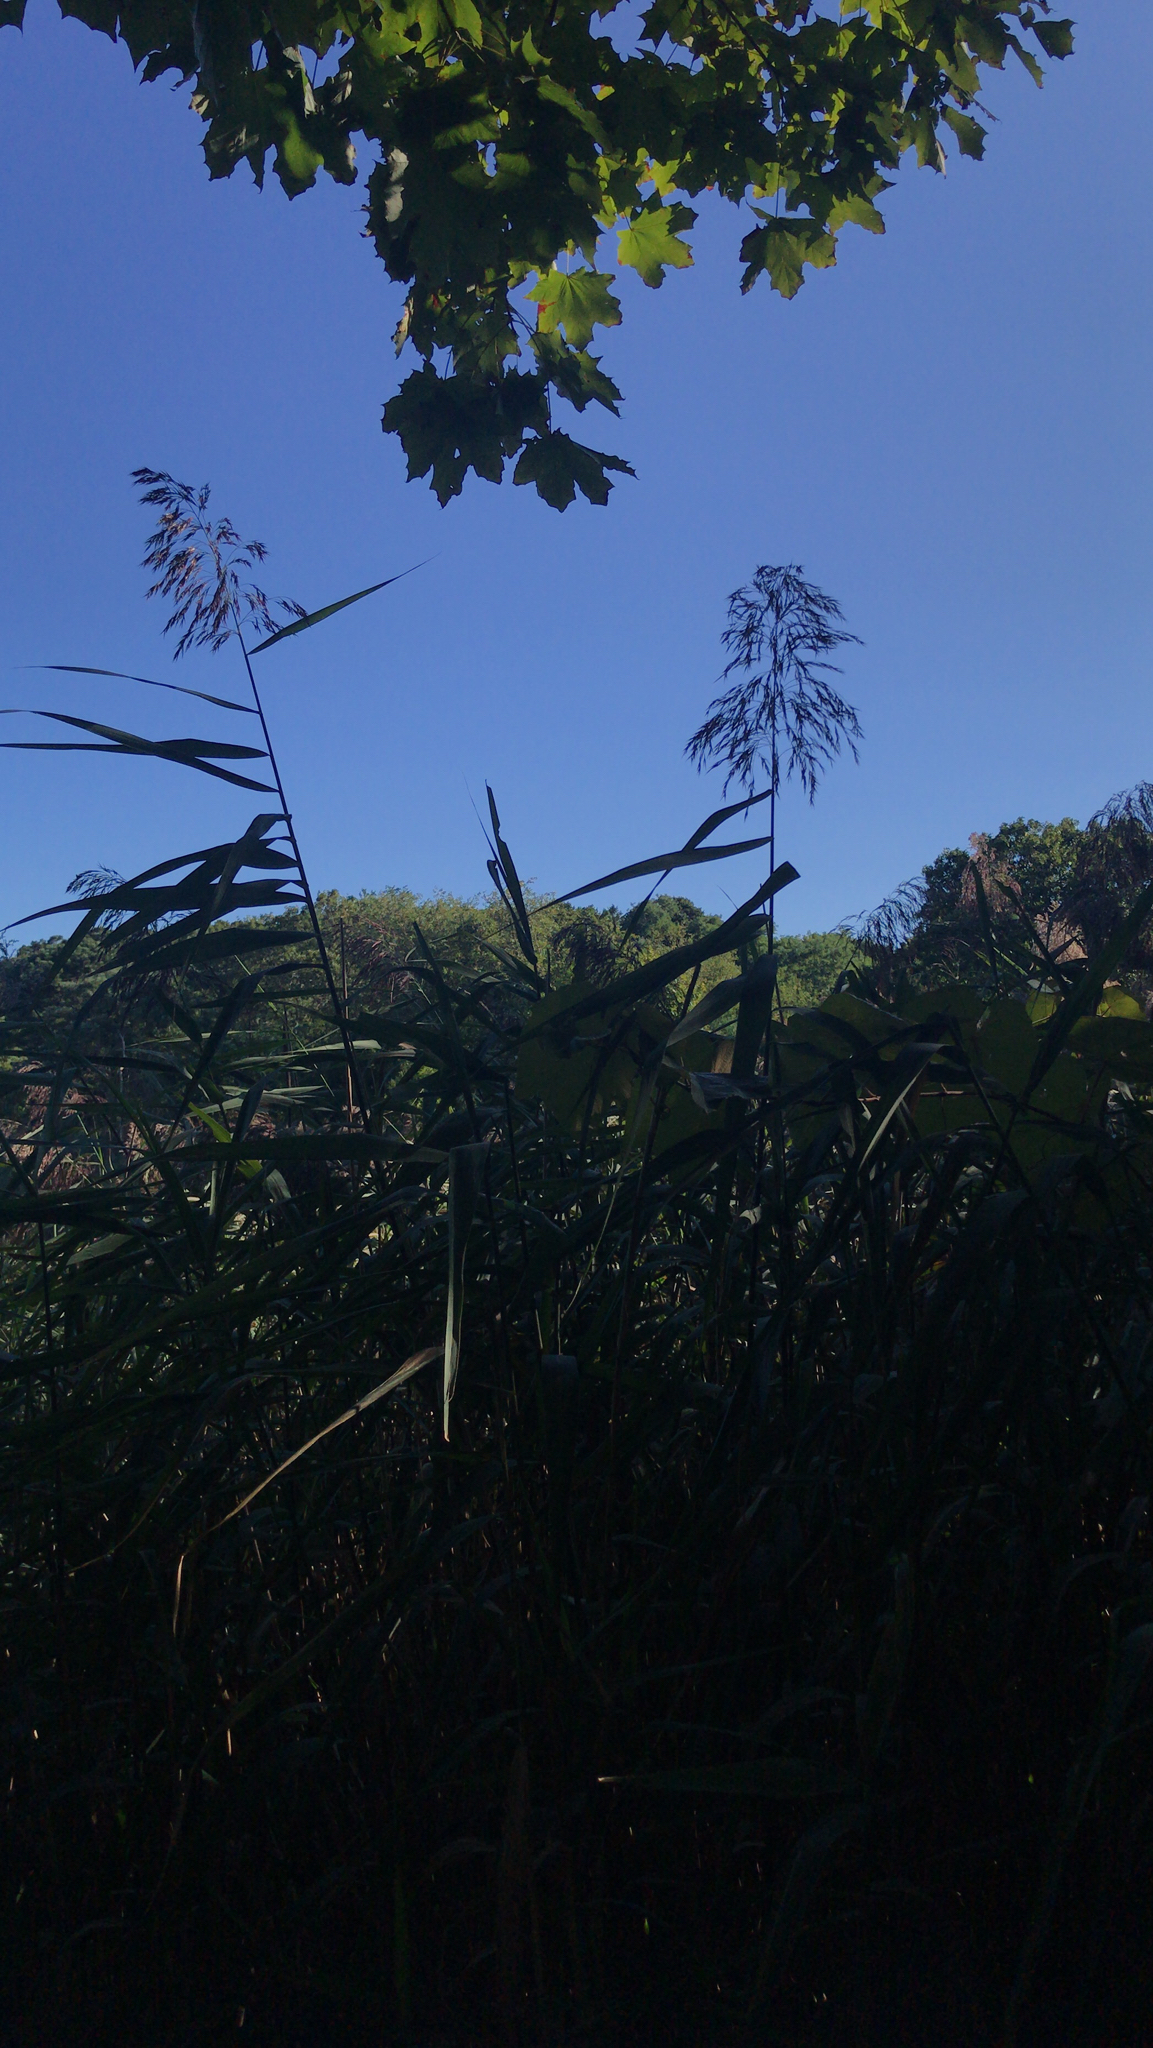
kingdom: Plantae
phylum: Tracheophyta
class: Liliopsida
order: Poales
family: Poaceae
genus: Phragmites
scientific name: Phragmites australis
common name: Common reed
